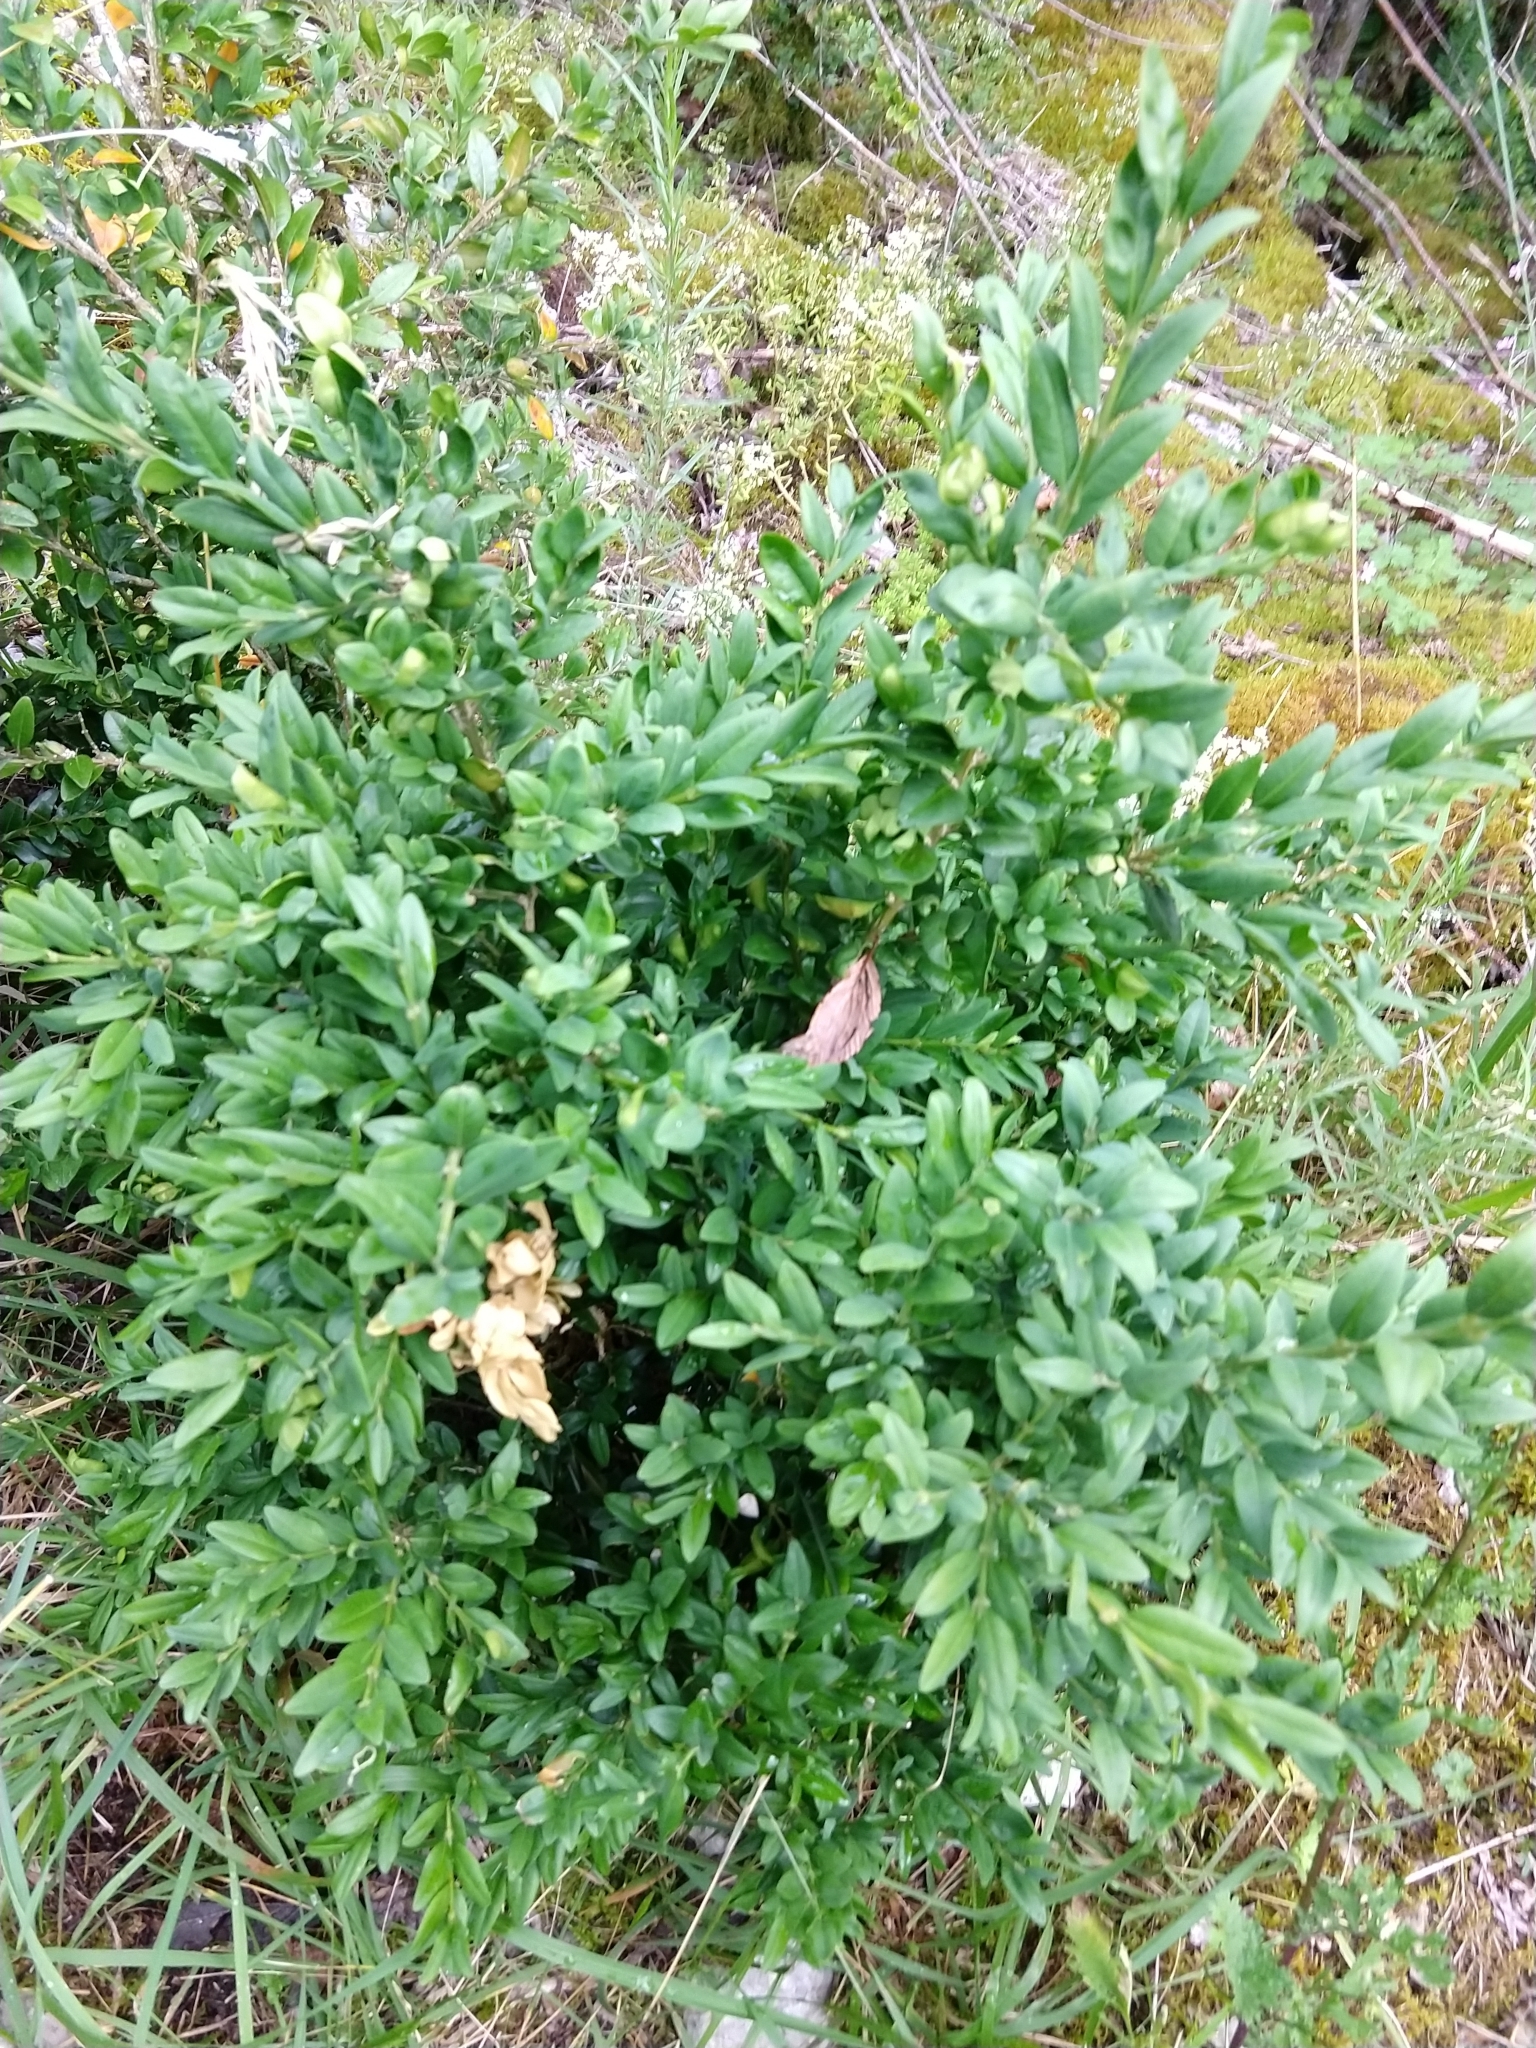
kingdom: Plantae
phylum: Tracheophyta
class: Magnoliopsida
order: Buxales
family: Buxaceae
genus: Buxus
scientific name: Buxus sempervirens
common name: Box
